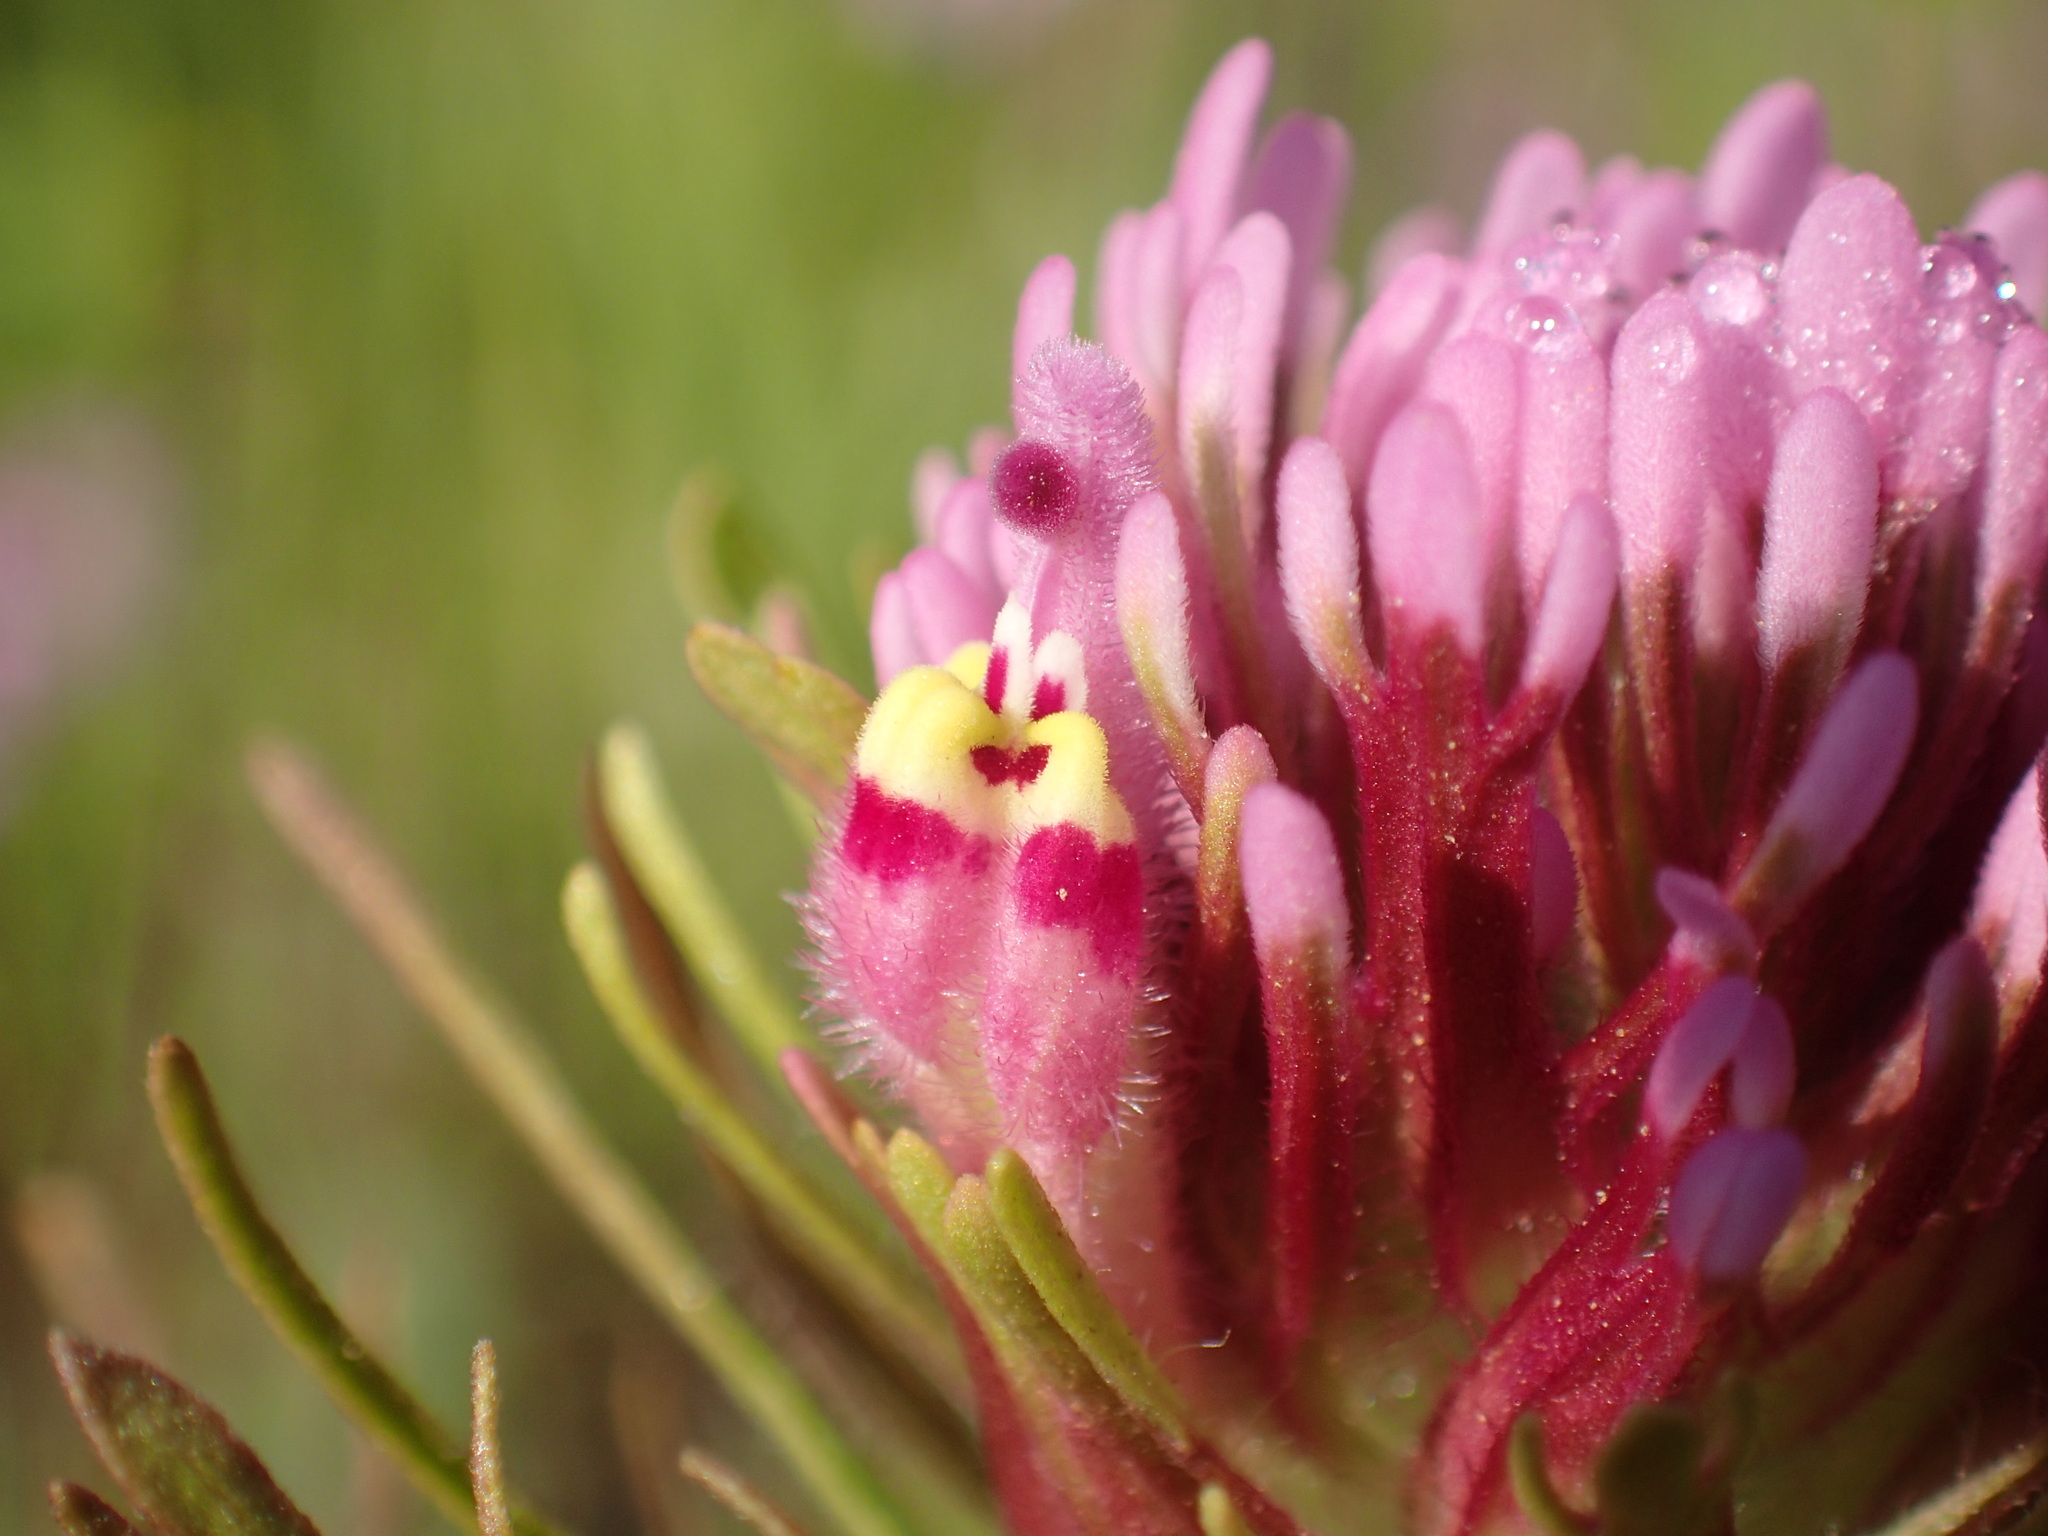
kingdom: Plantae
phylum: Tracheophyta
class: Magnoliopsida
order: Lamiales
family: Orobanchaceae
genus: Castilleja
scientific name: Castilleja exserta
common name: Purple owl-clover
